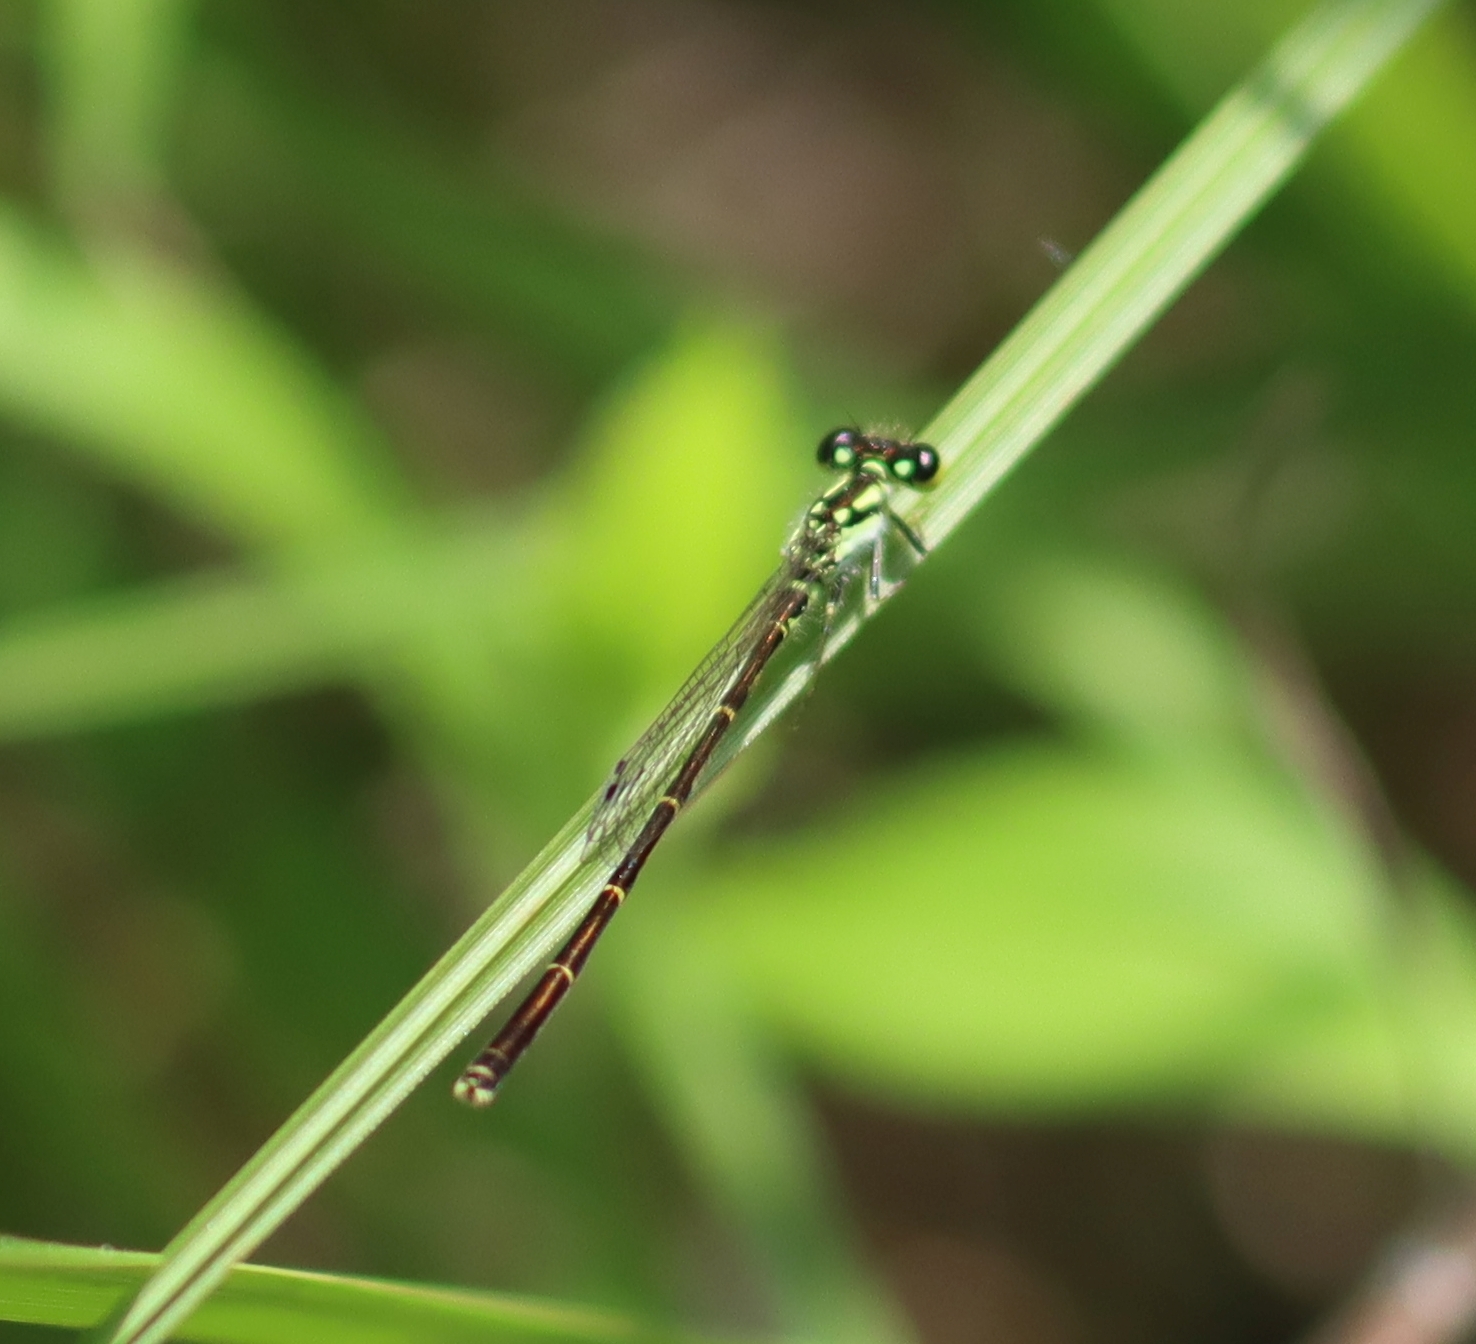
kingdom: Animalia
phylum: Arthropoda
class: Insecta
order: Odonata
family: Coenagrionidae
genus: Ischnura
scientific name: Ischnura posita
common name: Fragile forktail
